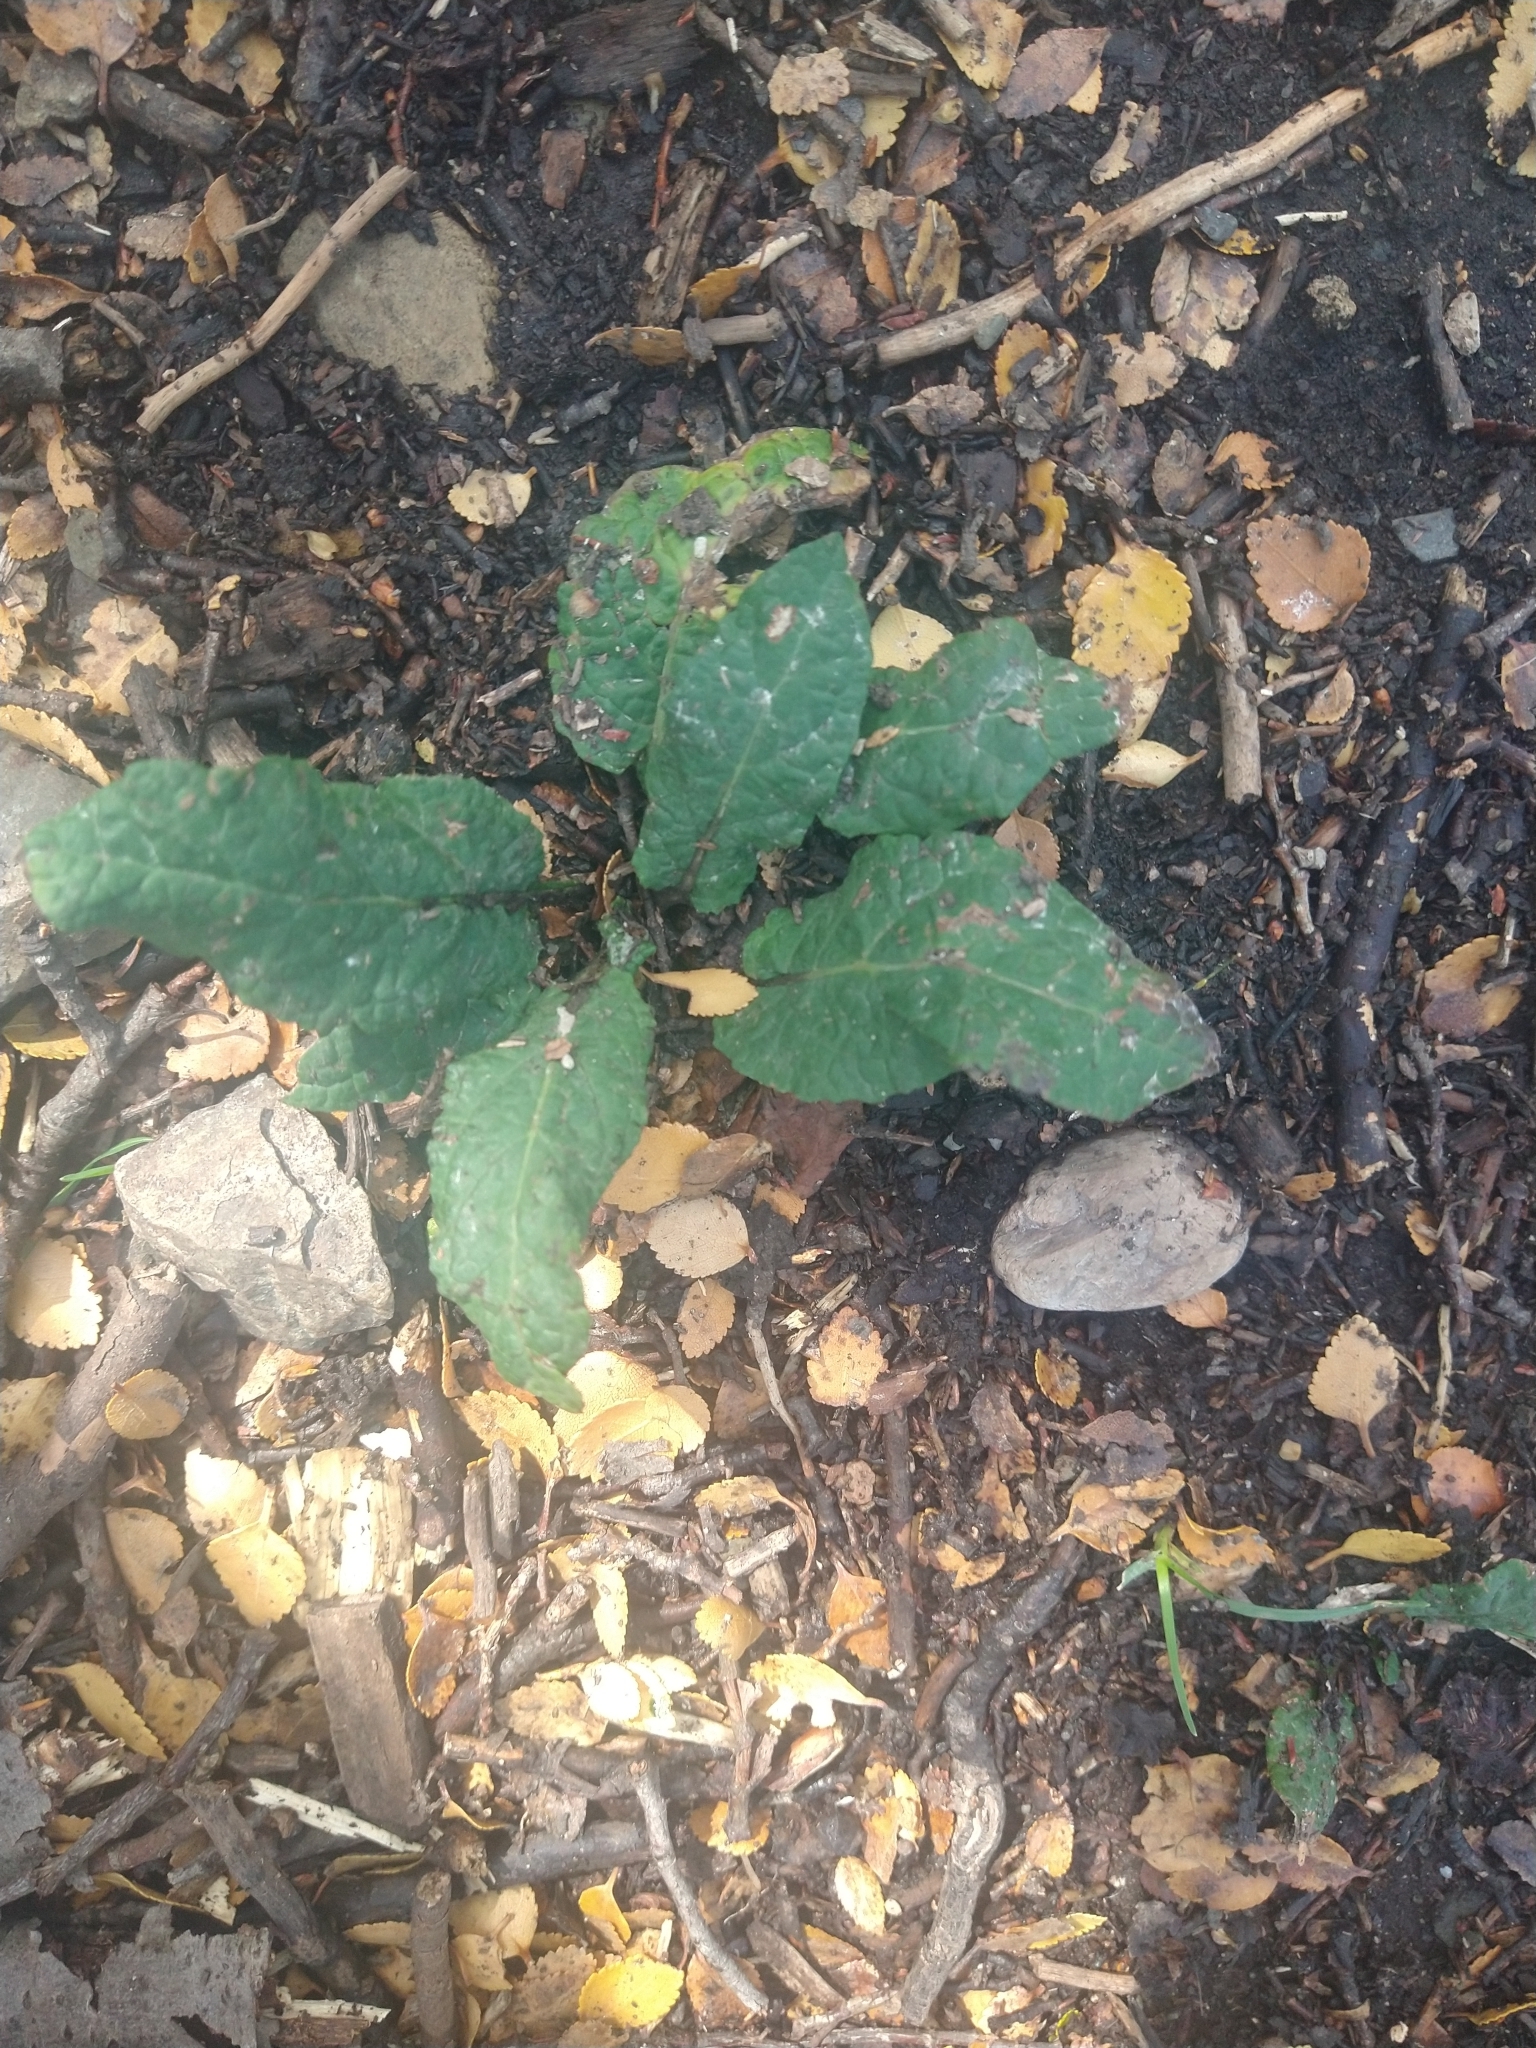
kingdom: Plantae
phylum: Tracheophyta
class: Magnoliopsida
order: Asterales
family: Asteraceae
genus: Adenocaulon
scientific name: Adenocaulon chilense
